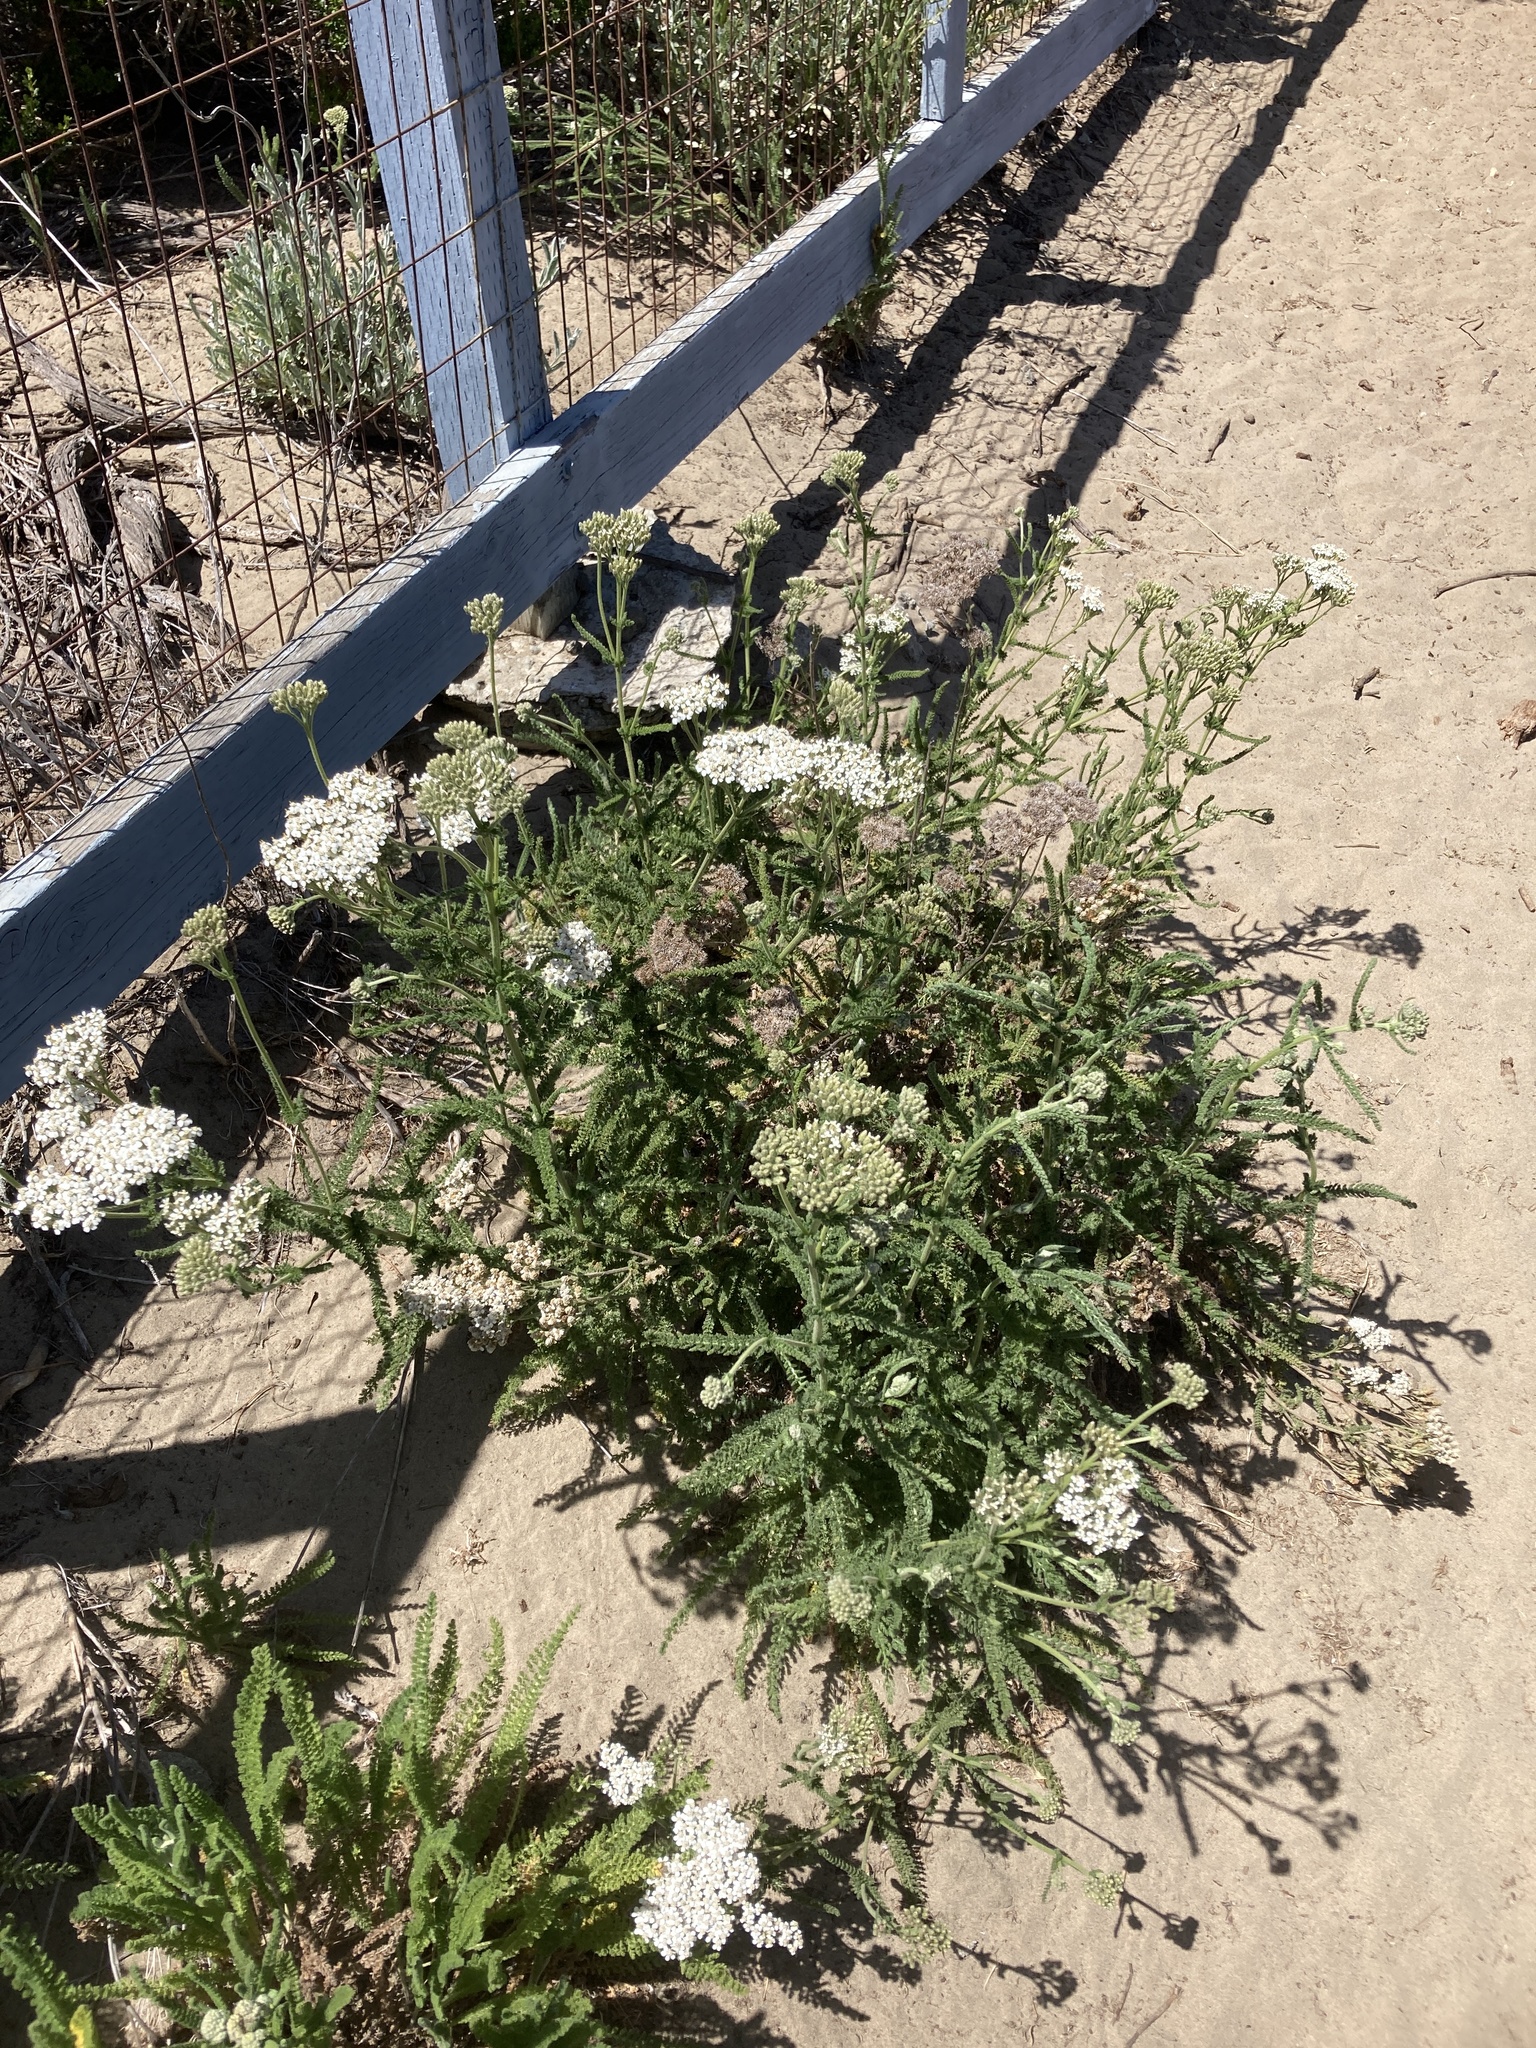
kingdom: Plantae
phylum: Tracheophyta
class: Magnoliopsida
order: Asterales
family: Asteraceae
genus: Achillea
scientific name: Achillea millefolium
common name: Yarrow
